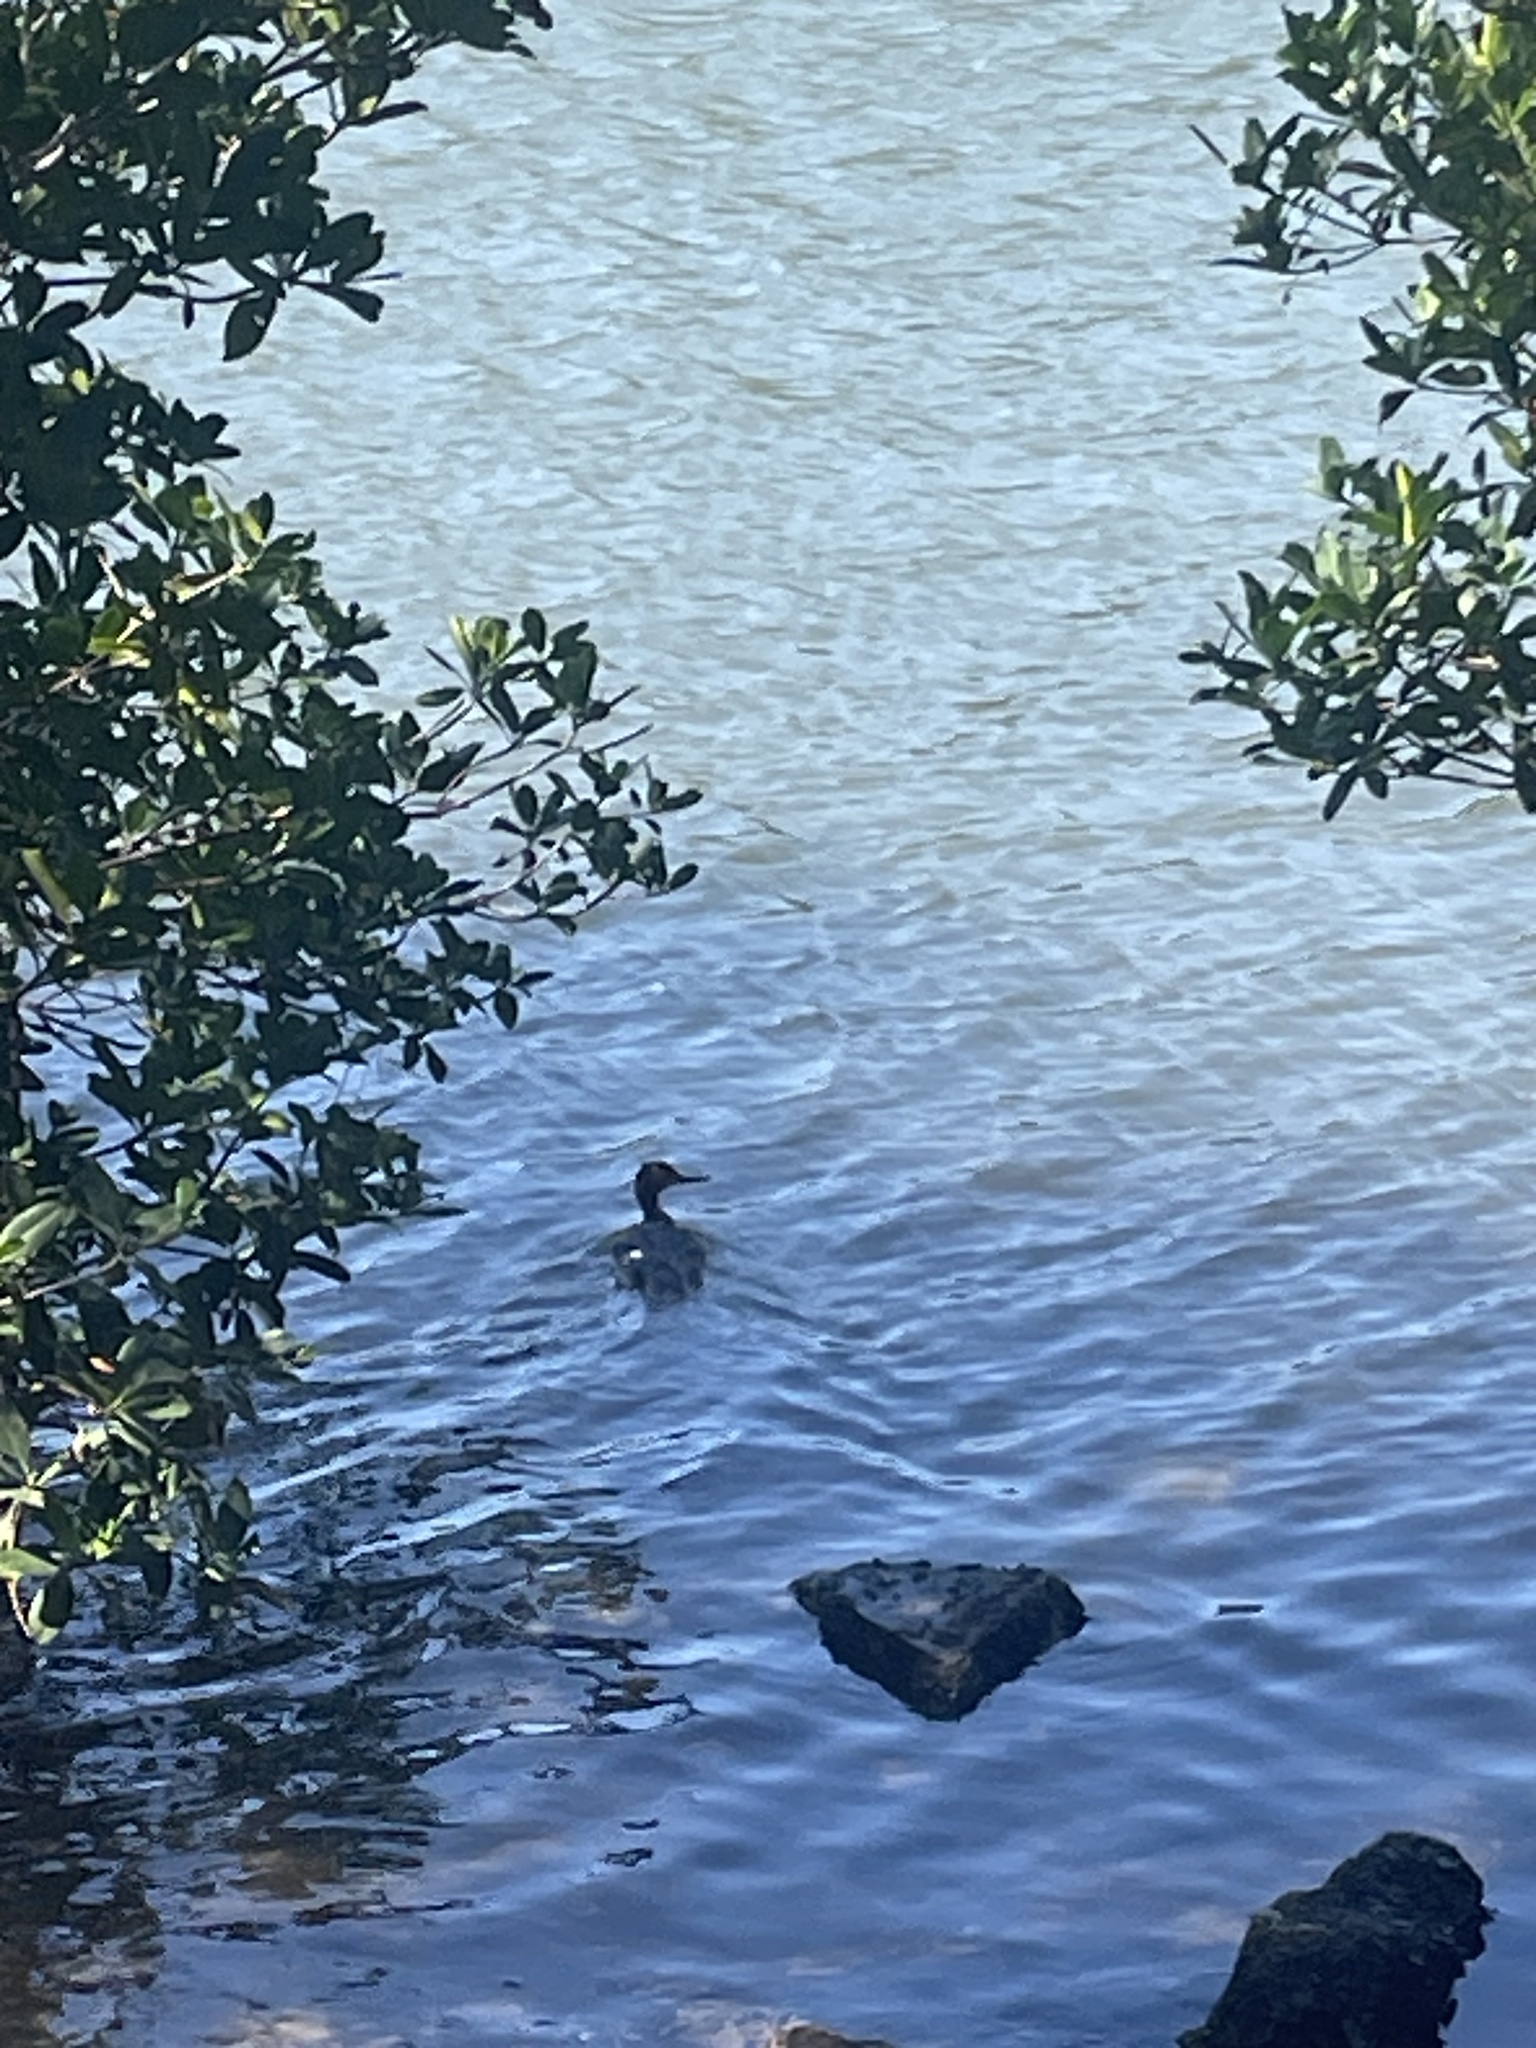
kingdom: Animalia
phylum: Chordata
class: Aves
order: Anseriformes
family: Anatidae
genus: Mergus
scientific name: Mergus serrator
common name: Red-breasted merganser
